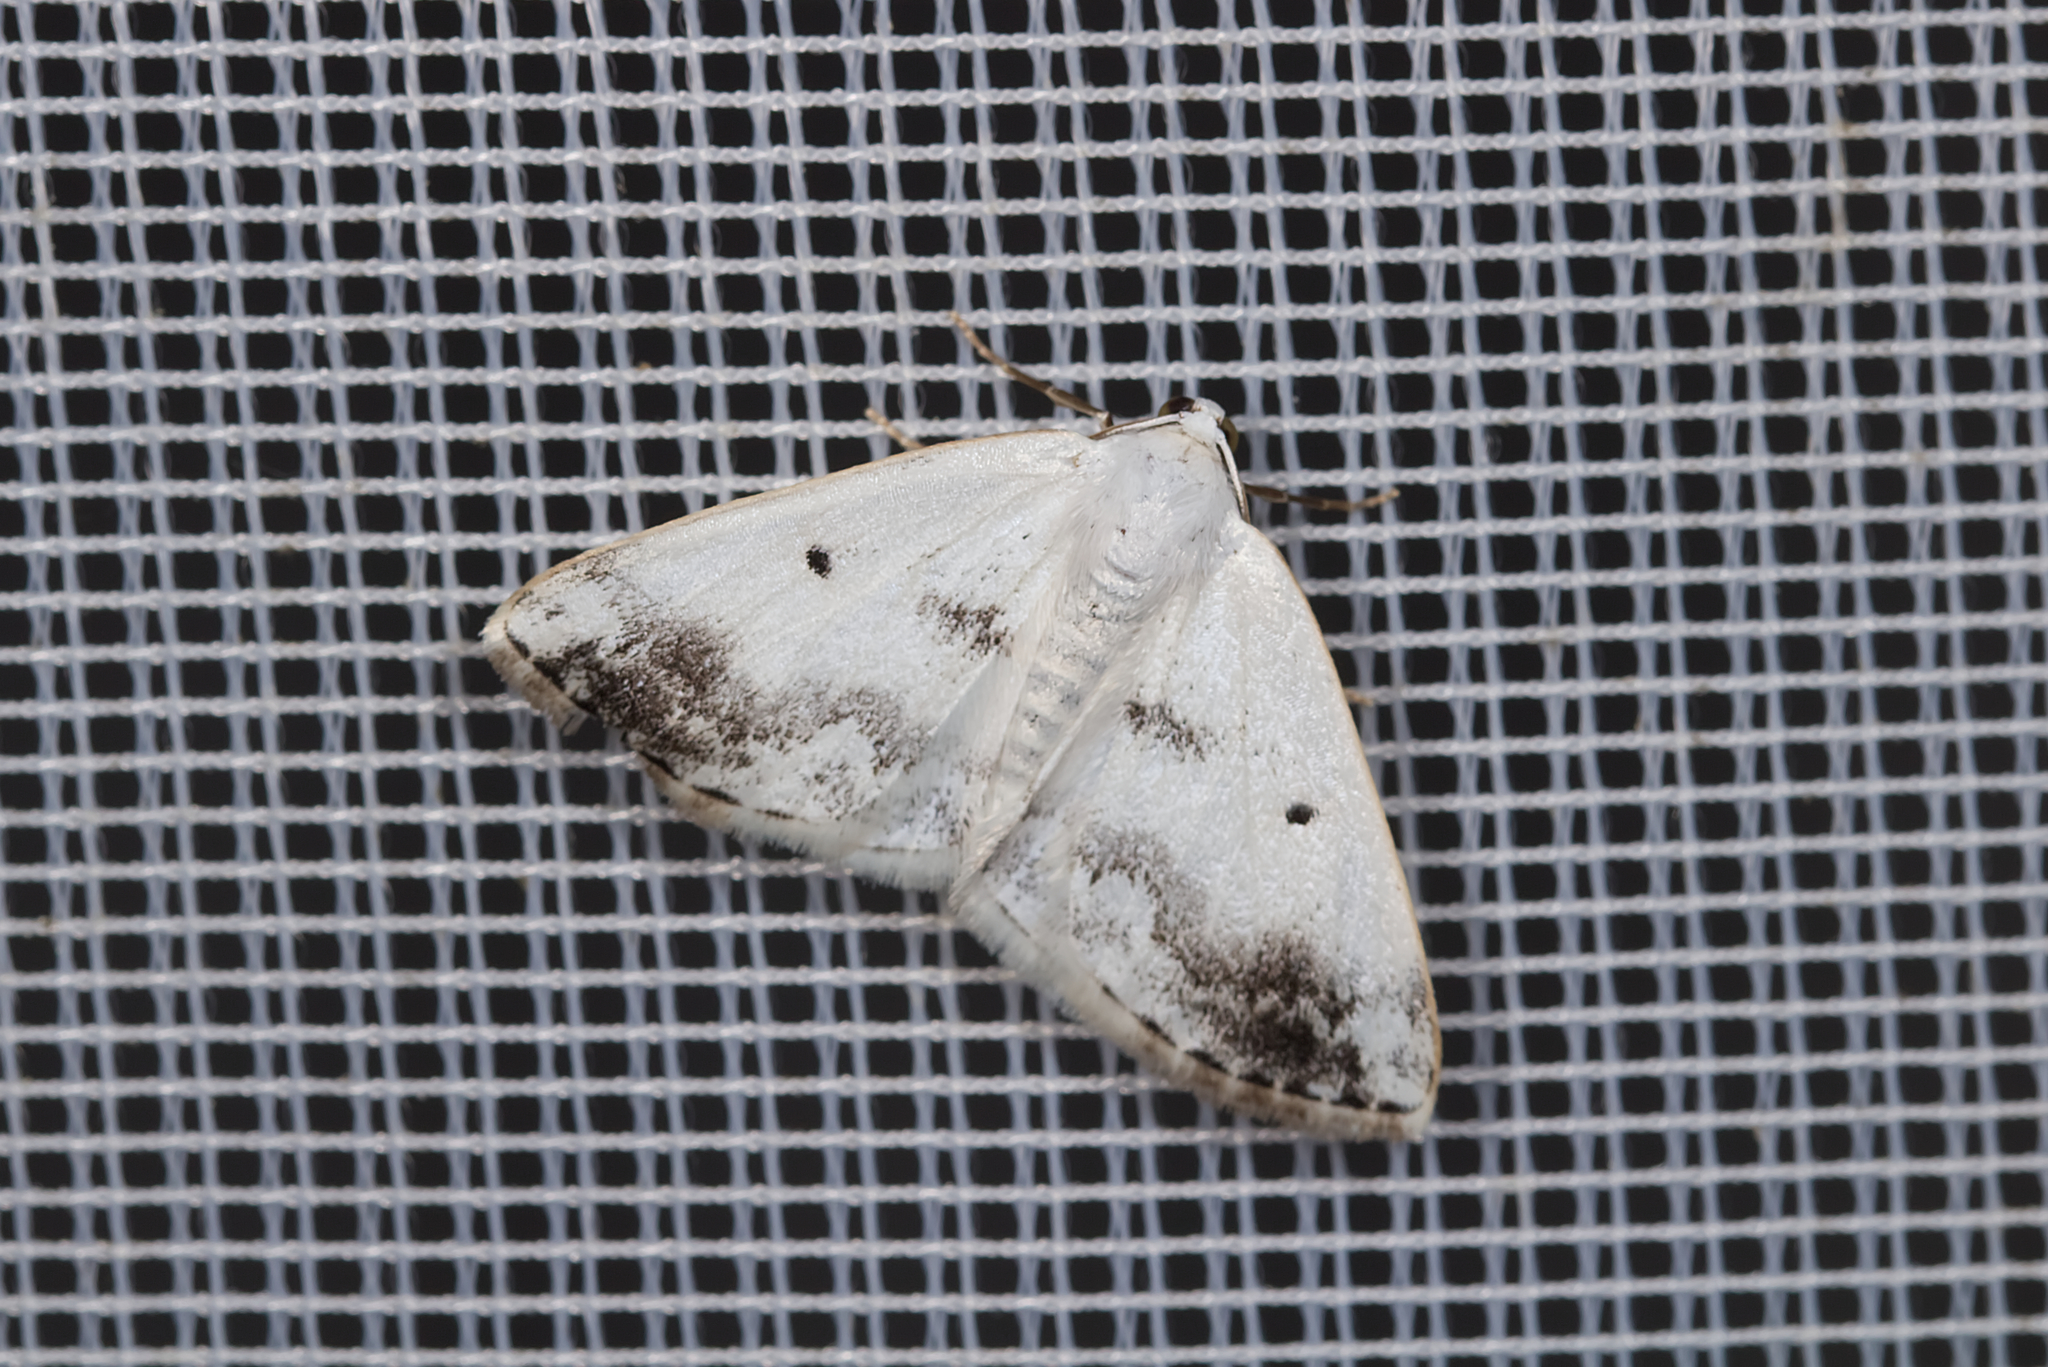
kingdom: Animalia
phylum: Arthropoda
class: Insecta
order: Lepidoptera
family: Geometridae
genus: Lomographa
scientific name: Lomographa temerata
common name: Clouded silver
